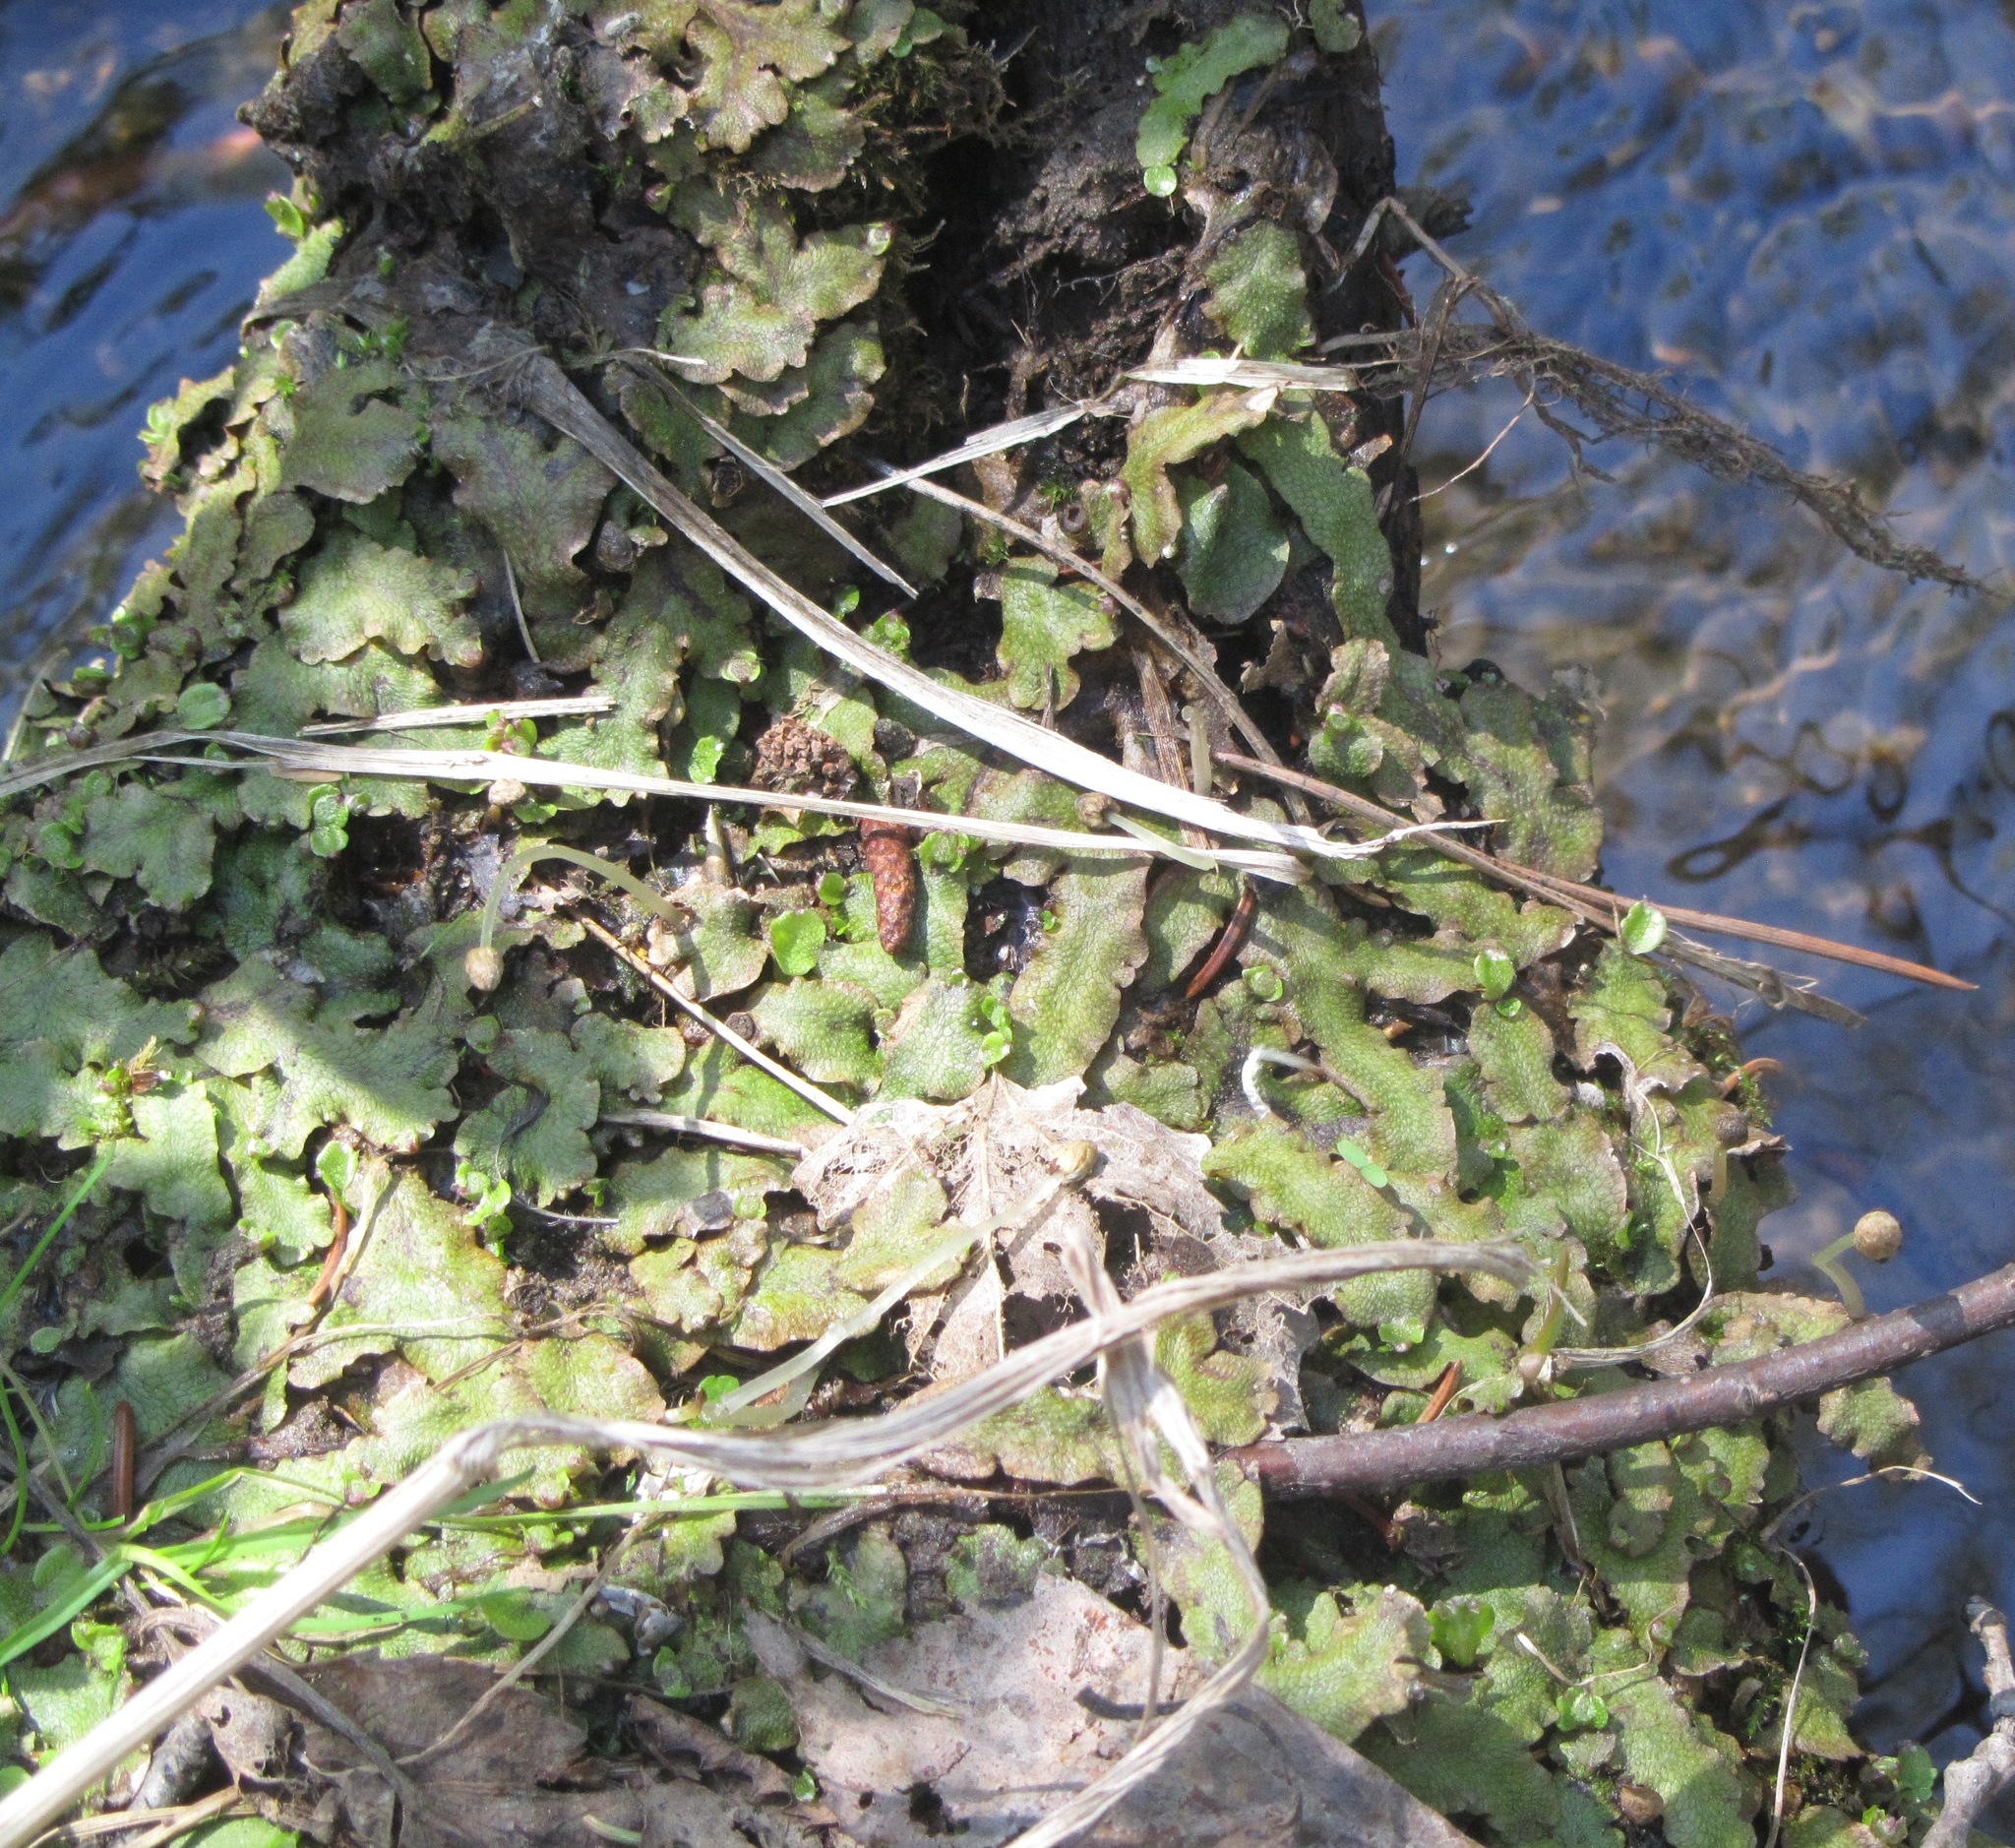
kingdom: Plantae
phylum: Marchantiophyta
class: Marchantiopsida
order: Marchantiales
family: Conocephalaceae
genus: Conocephalum
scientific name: Conocephalum salebrosum
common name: Cat-tongue liverwort
